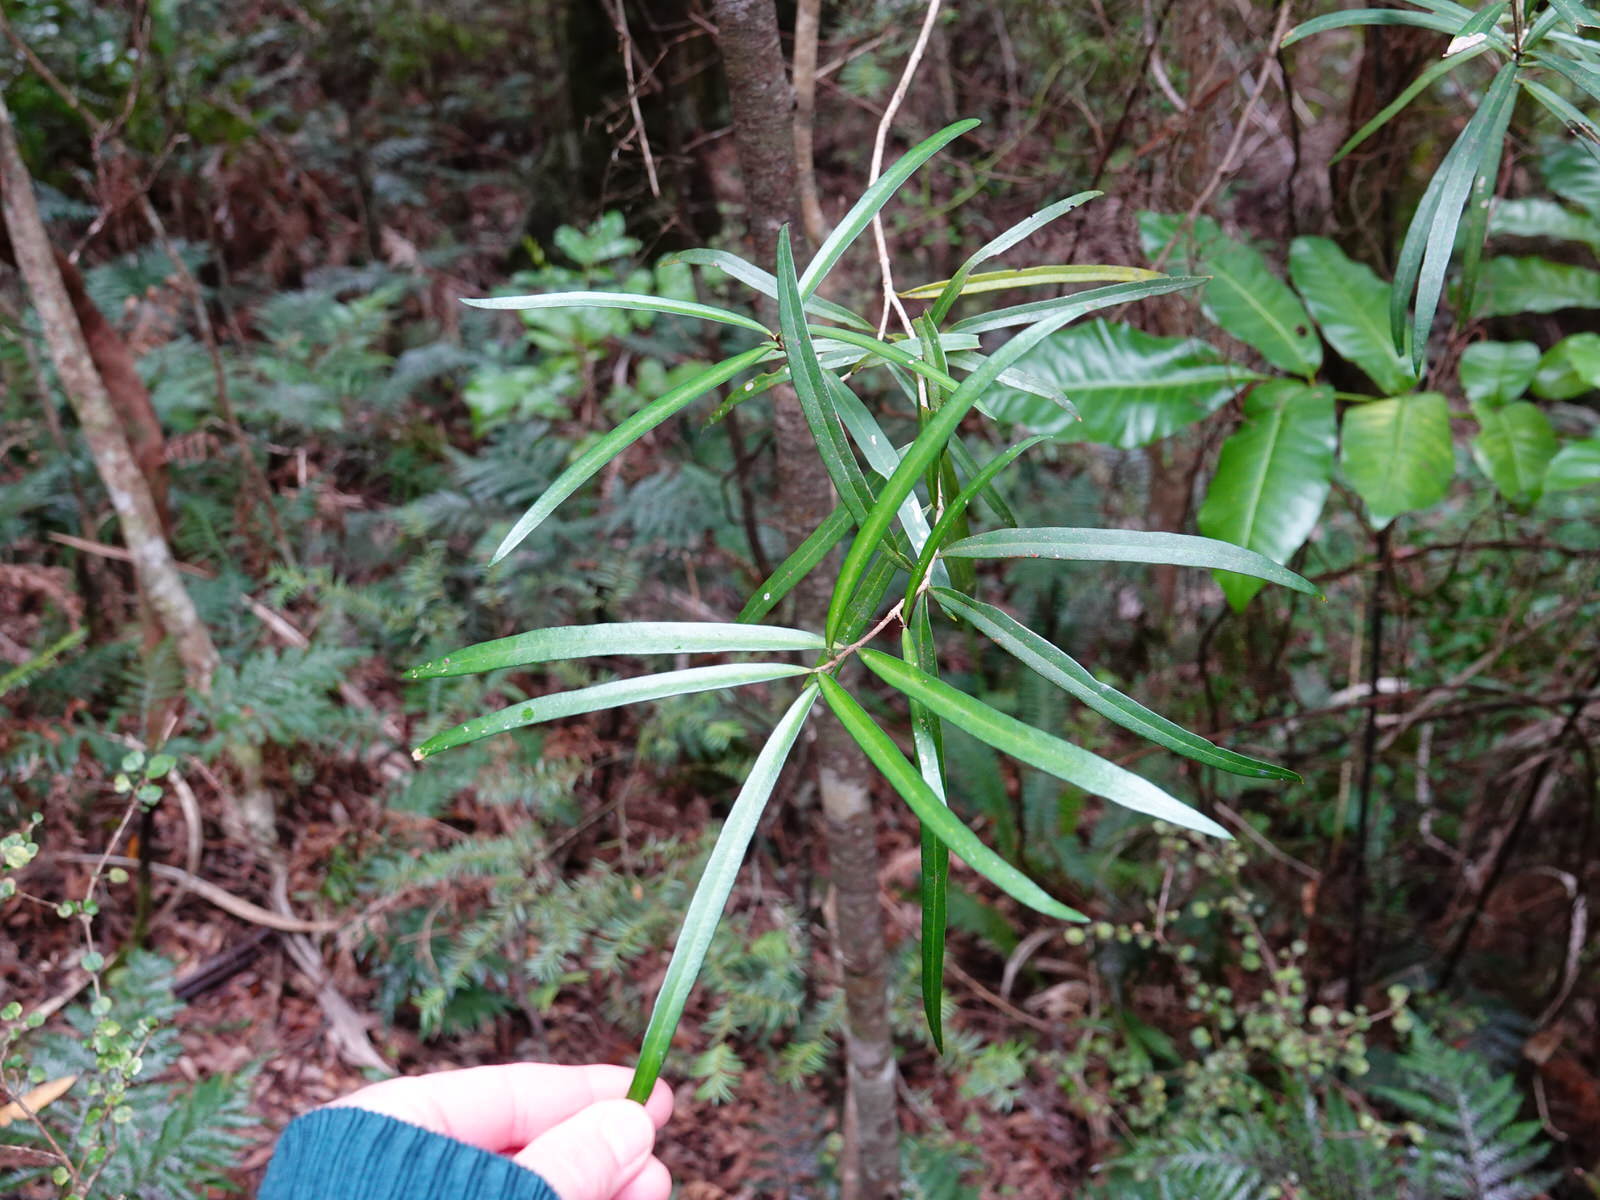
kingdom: Plantae
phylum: Tracheophyta
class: Magnoliopsida
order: Lamiales
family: Oleaceae
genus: Nestegis
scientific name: Nestegis lanceolata
